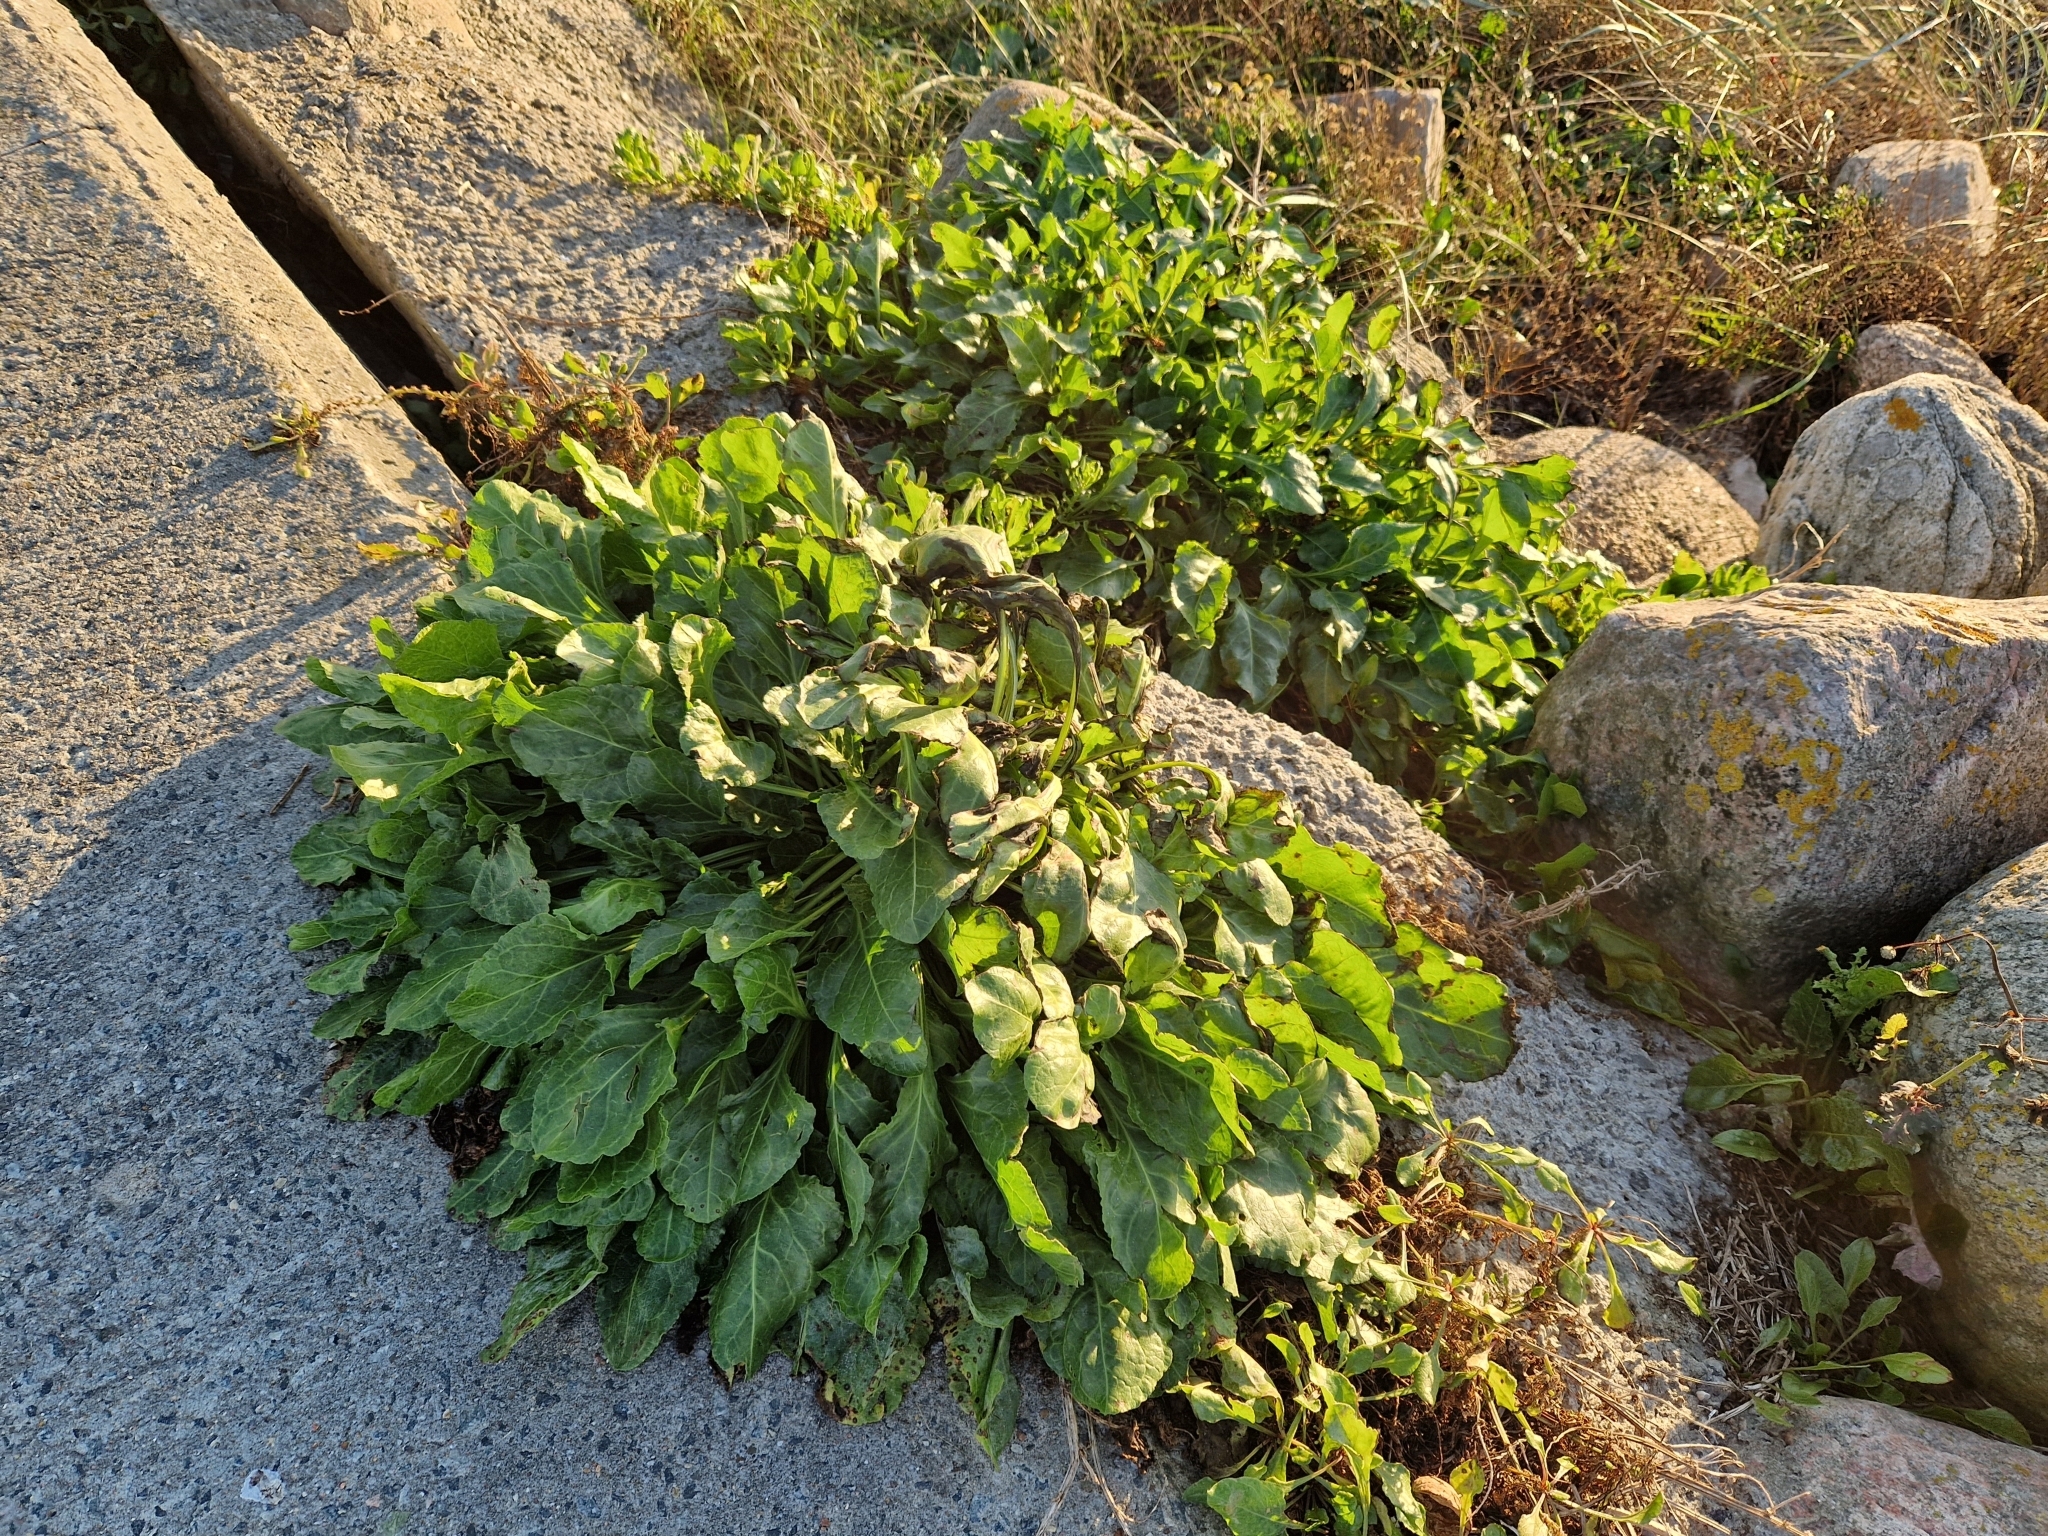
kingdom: Plantae
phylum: Tracheophyta
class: Magnoliopsida
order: Caryophyllales
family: Amaranthaceae
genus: Beta
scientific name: Beta vulgaris
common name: Beet
